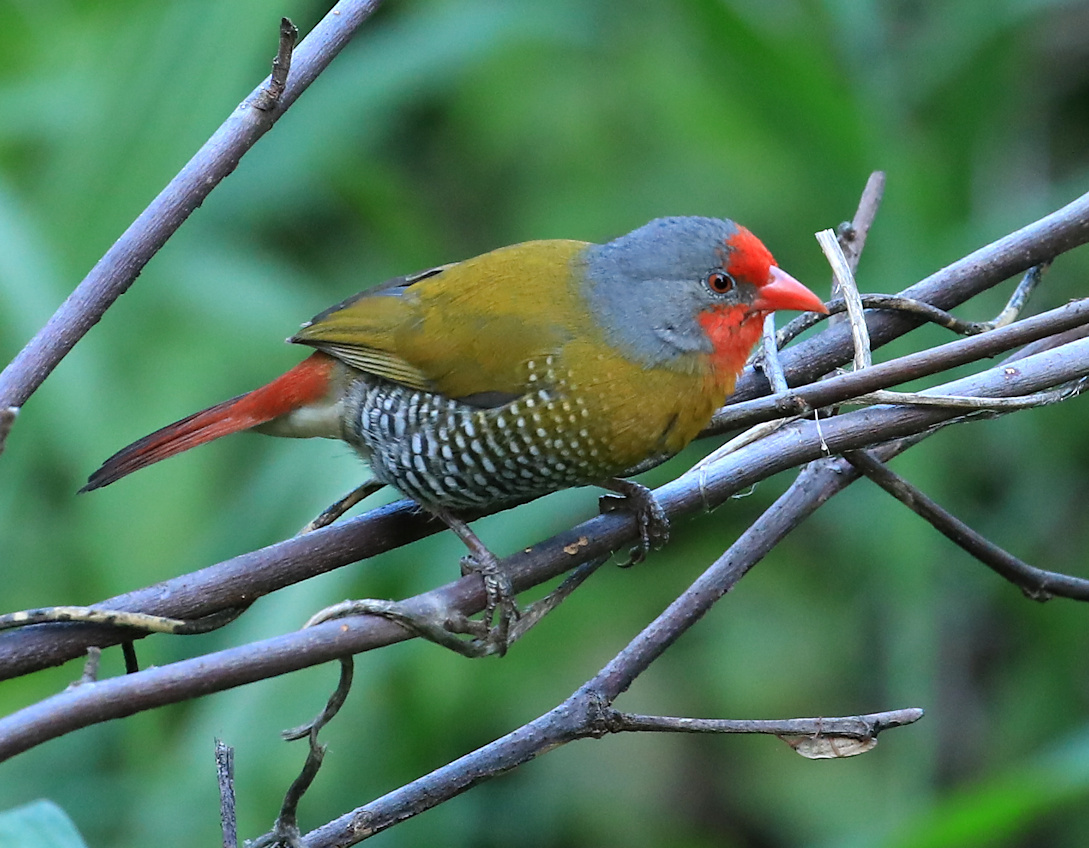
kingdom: Animalia
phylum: Chordata
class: Aves
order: Passeriformes
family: Estrildidae
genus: Pytilia
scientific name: Pytilia melba
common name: Green-winged pytilia
